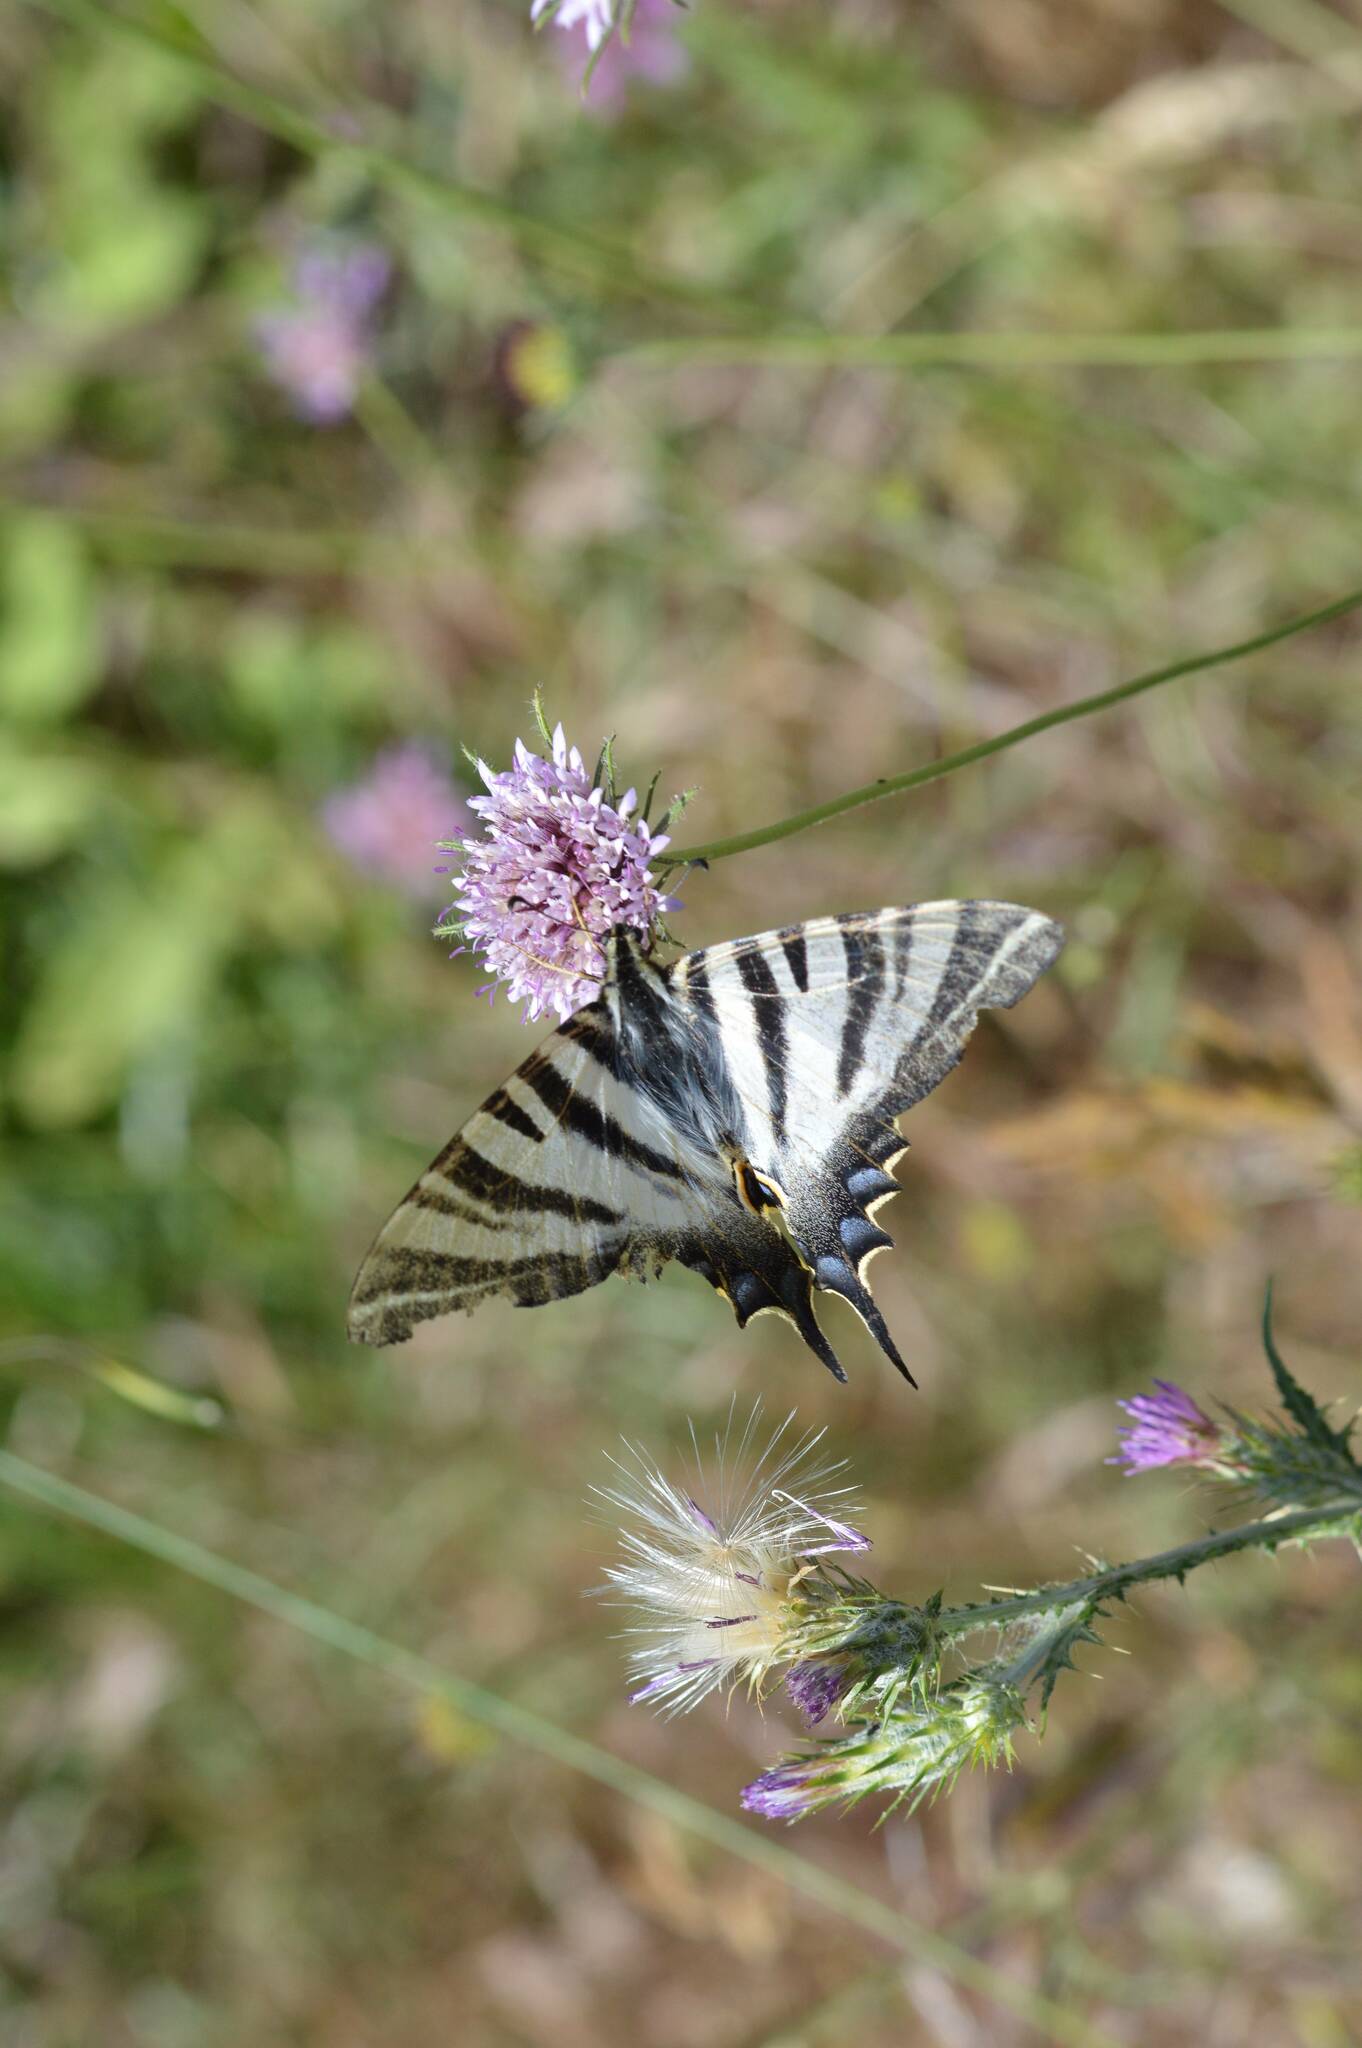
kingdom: Animalia
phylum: Arthropoda
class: Insecta
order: Lepidoptera
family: Papilionidae
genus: Iphiclides
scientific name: Iphiclides feisthamelii
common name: Iberian scarce swallowtail
